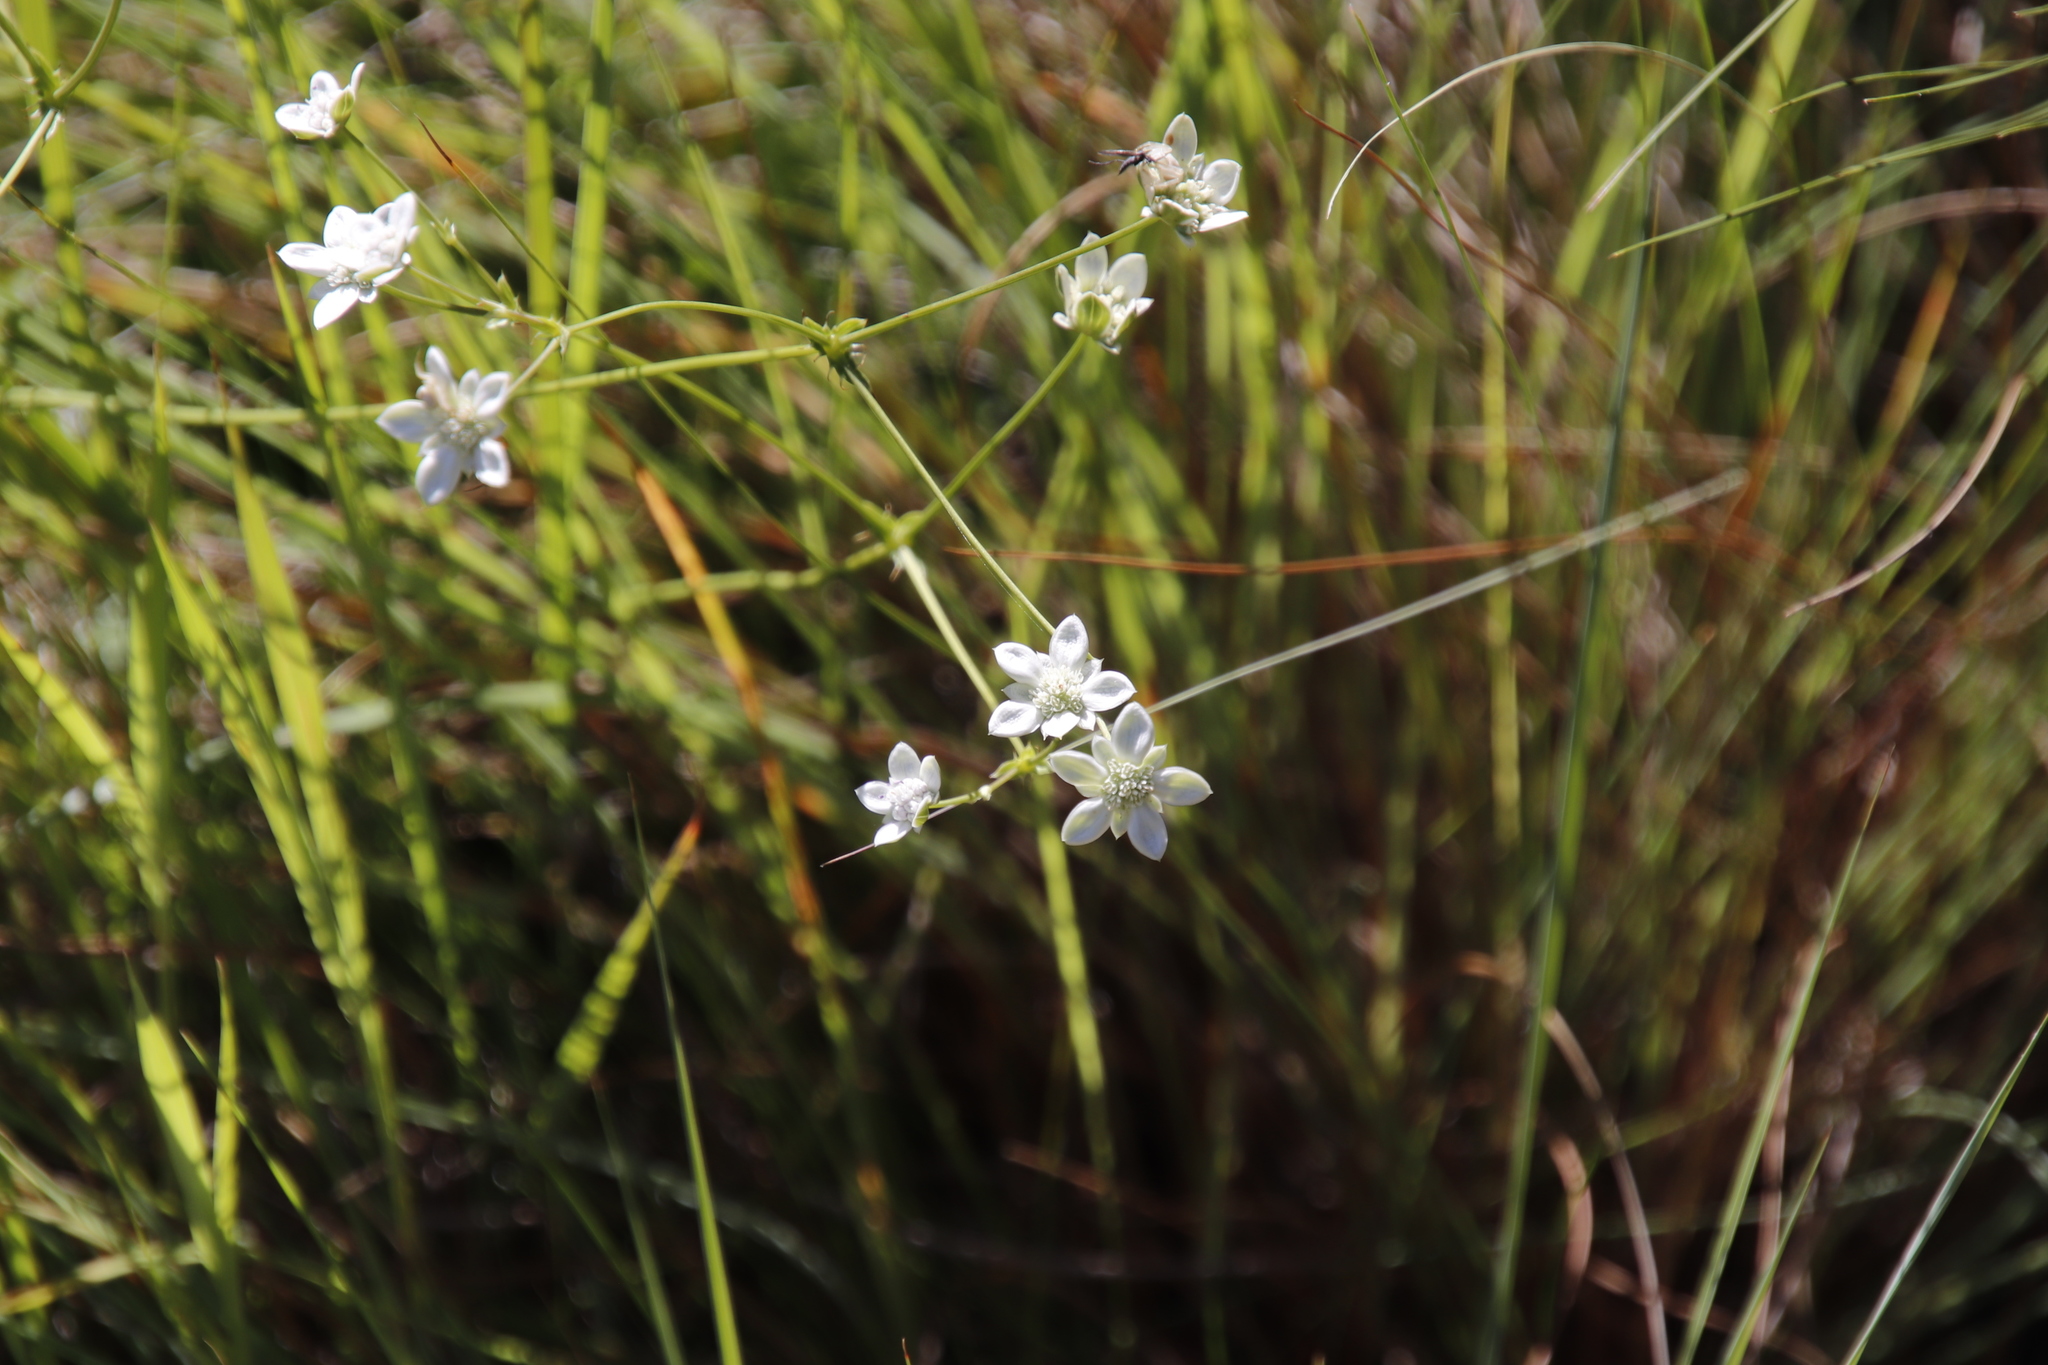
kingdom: Plantae
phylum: Tracheophyta
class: Magnoliopsida
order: Apiales
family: Apiaceae
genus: Alepidea
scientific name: Alepidea duplidens
